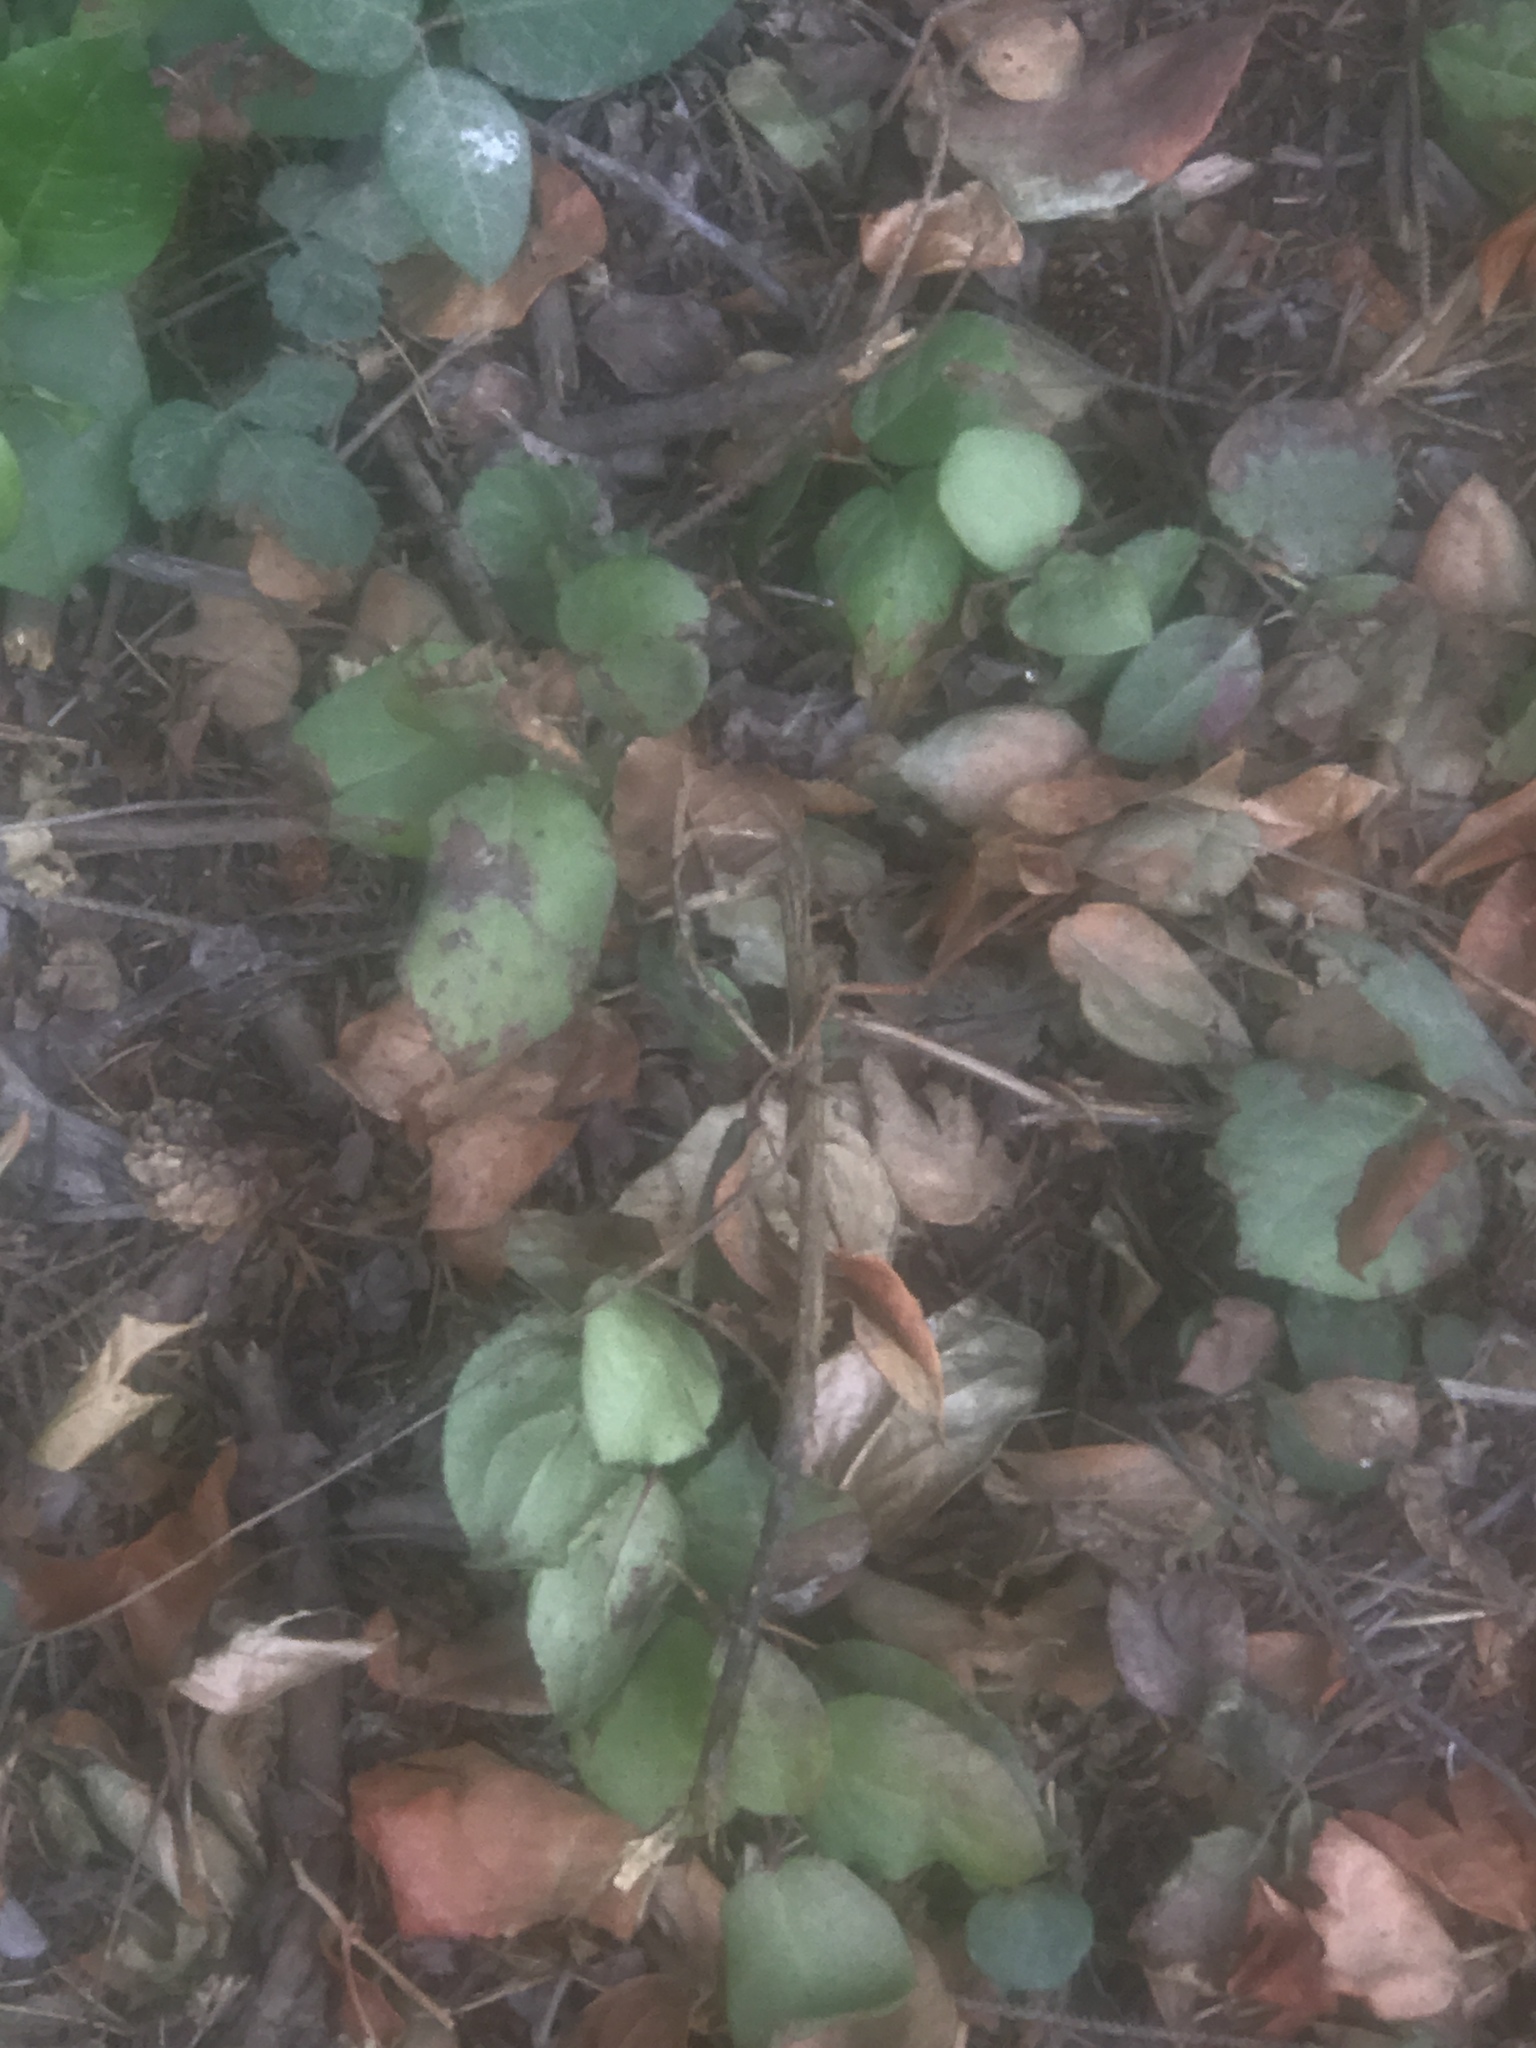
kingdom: Animalia
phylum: Chordata
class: Squamata
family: Colubridae
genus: Thamnophis
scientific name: Thamnophis ordinoides
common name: Northwestern garter snake
